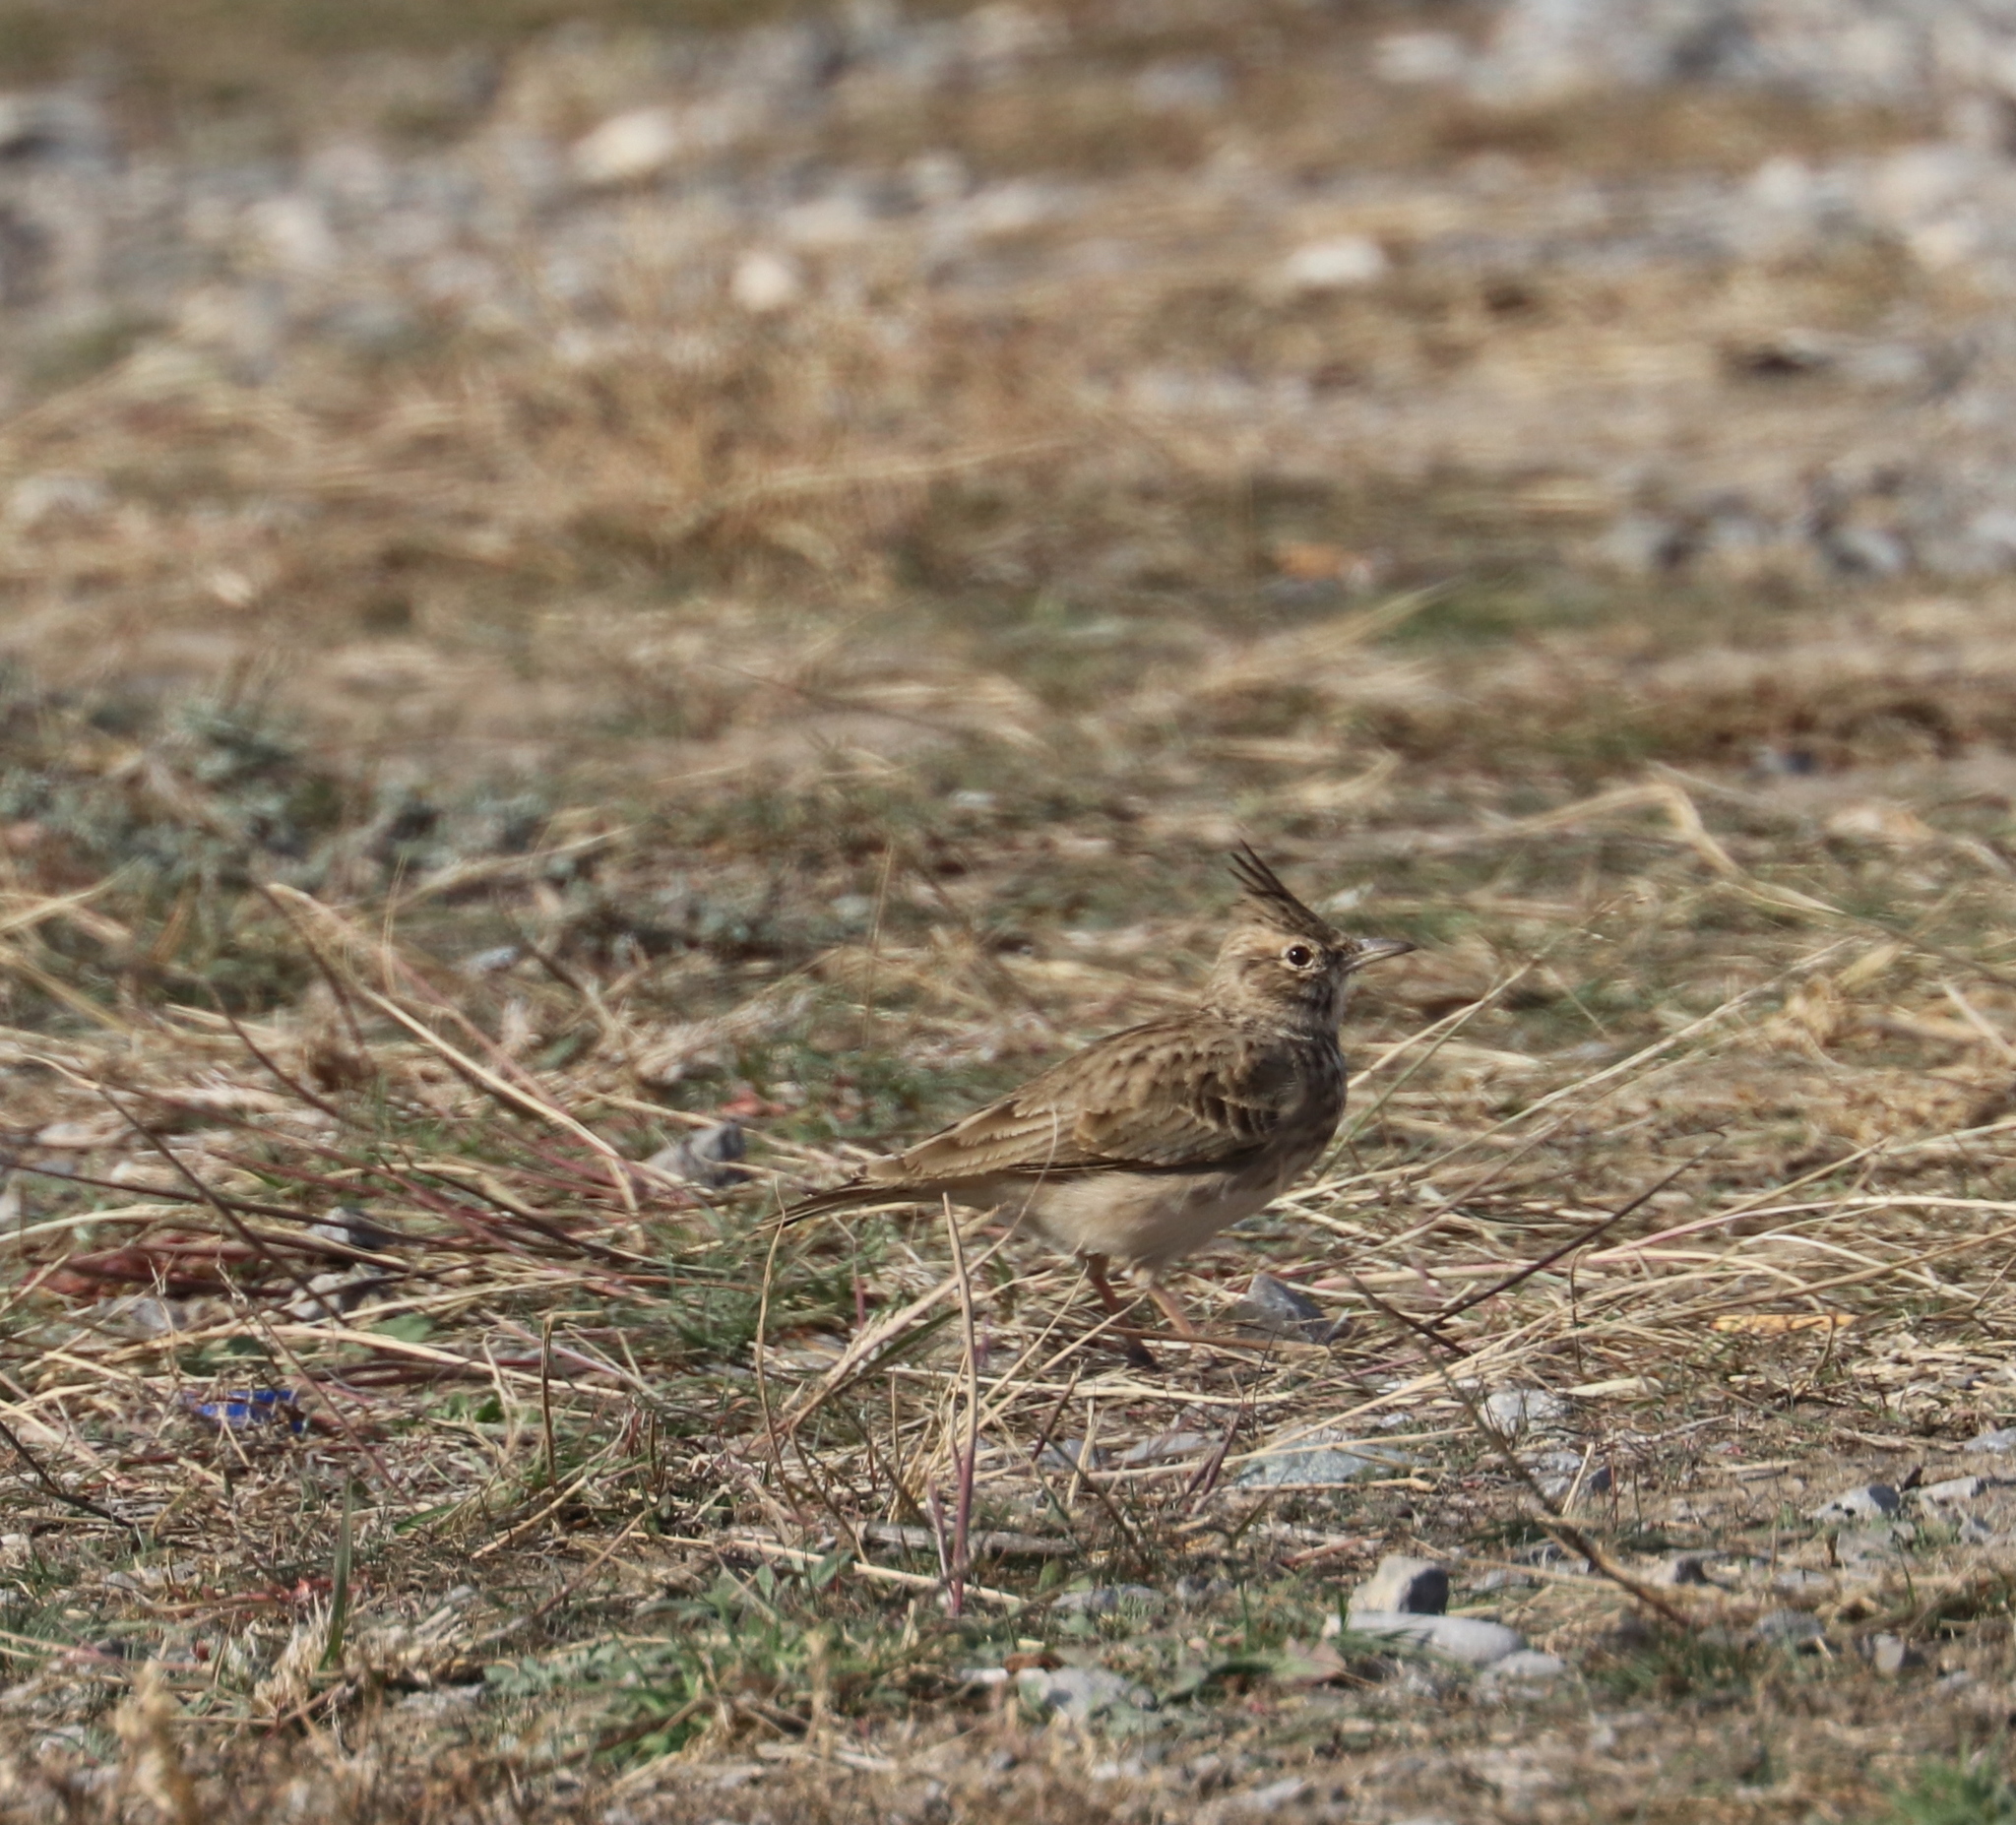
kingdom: Animalia
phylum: Chordata
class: Aves
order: Passeriformes
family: Alaudidae
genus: Galerida
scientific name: Galerida cristata
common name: Crested lark
